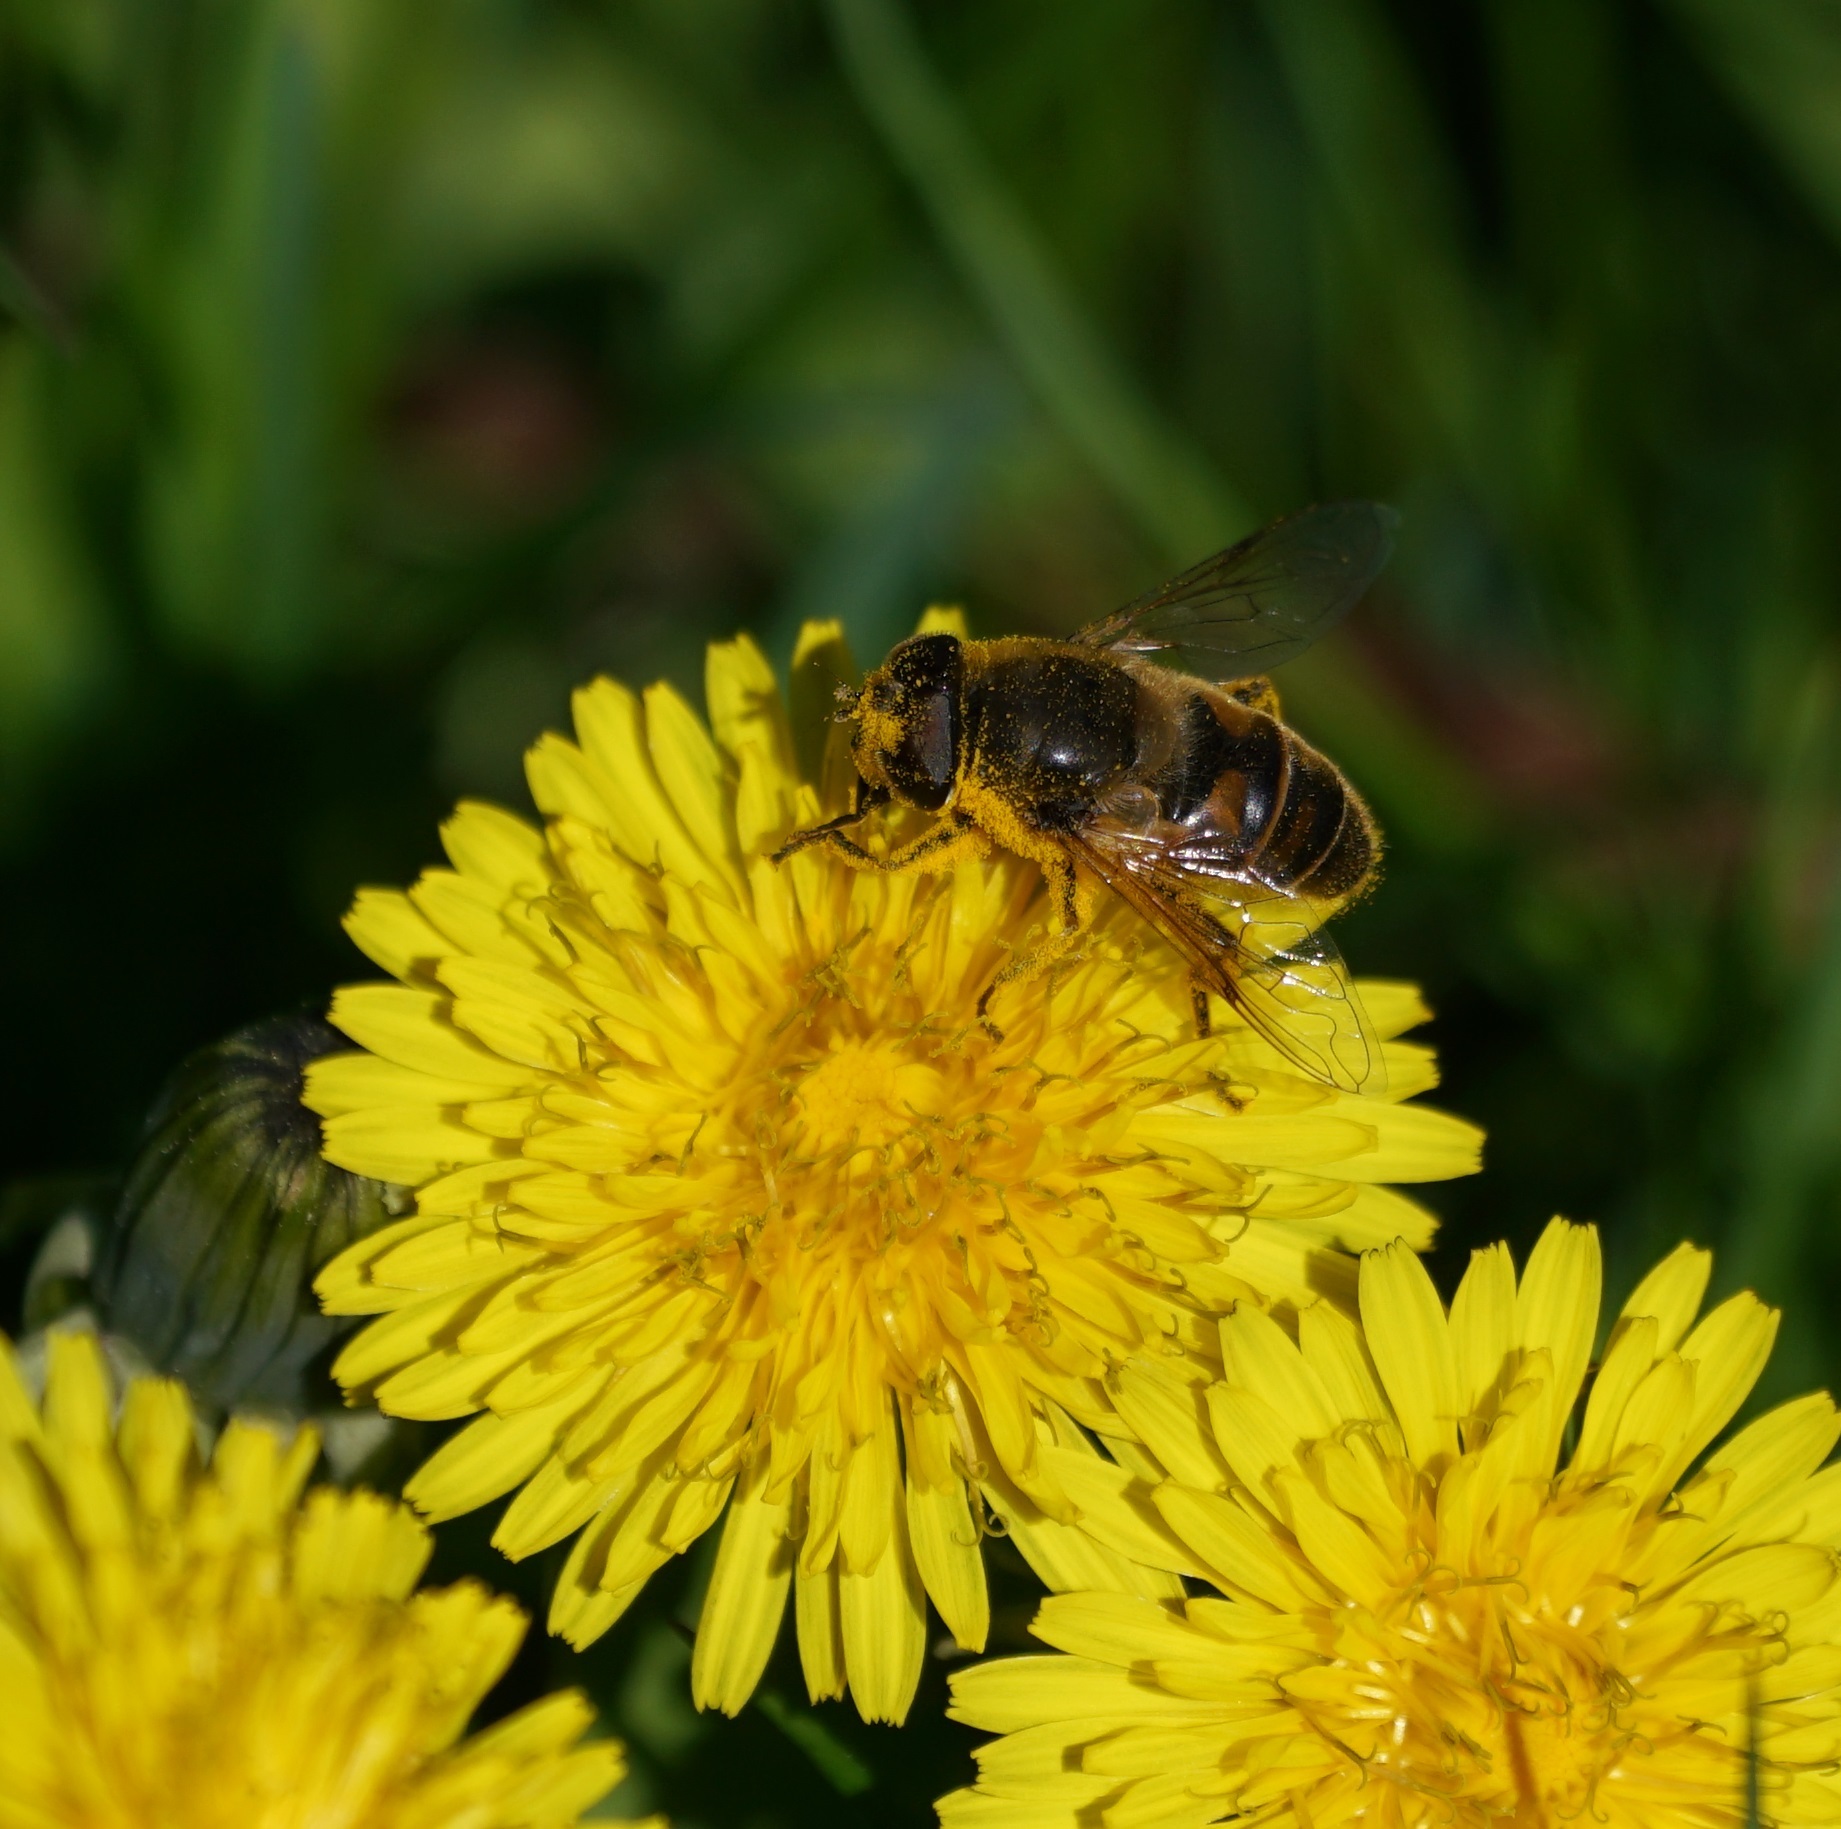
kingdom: Animalia
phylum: Arthropoda
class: Insecta
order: Diptera
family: Syrphidae
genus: Eristalis
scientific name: Eristalis tenax
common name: Drone fly
